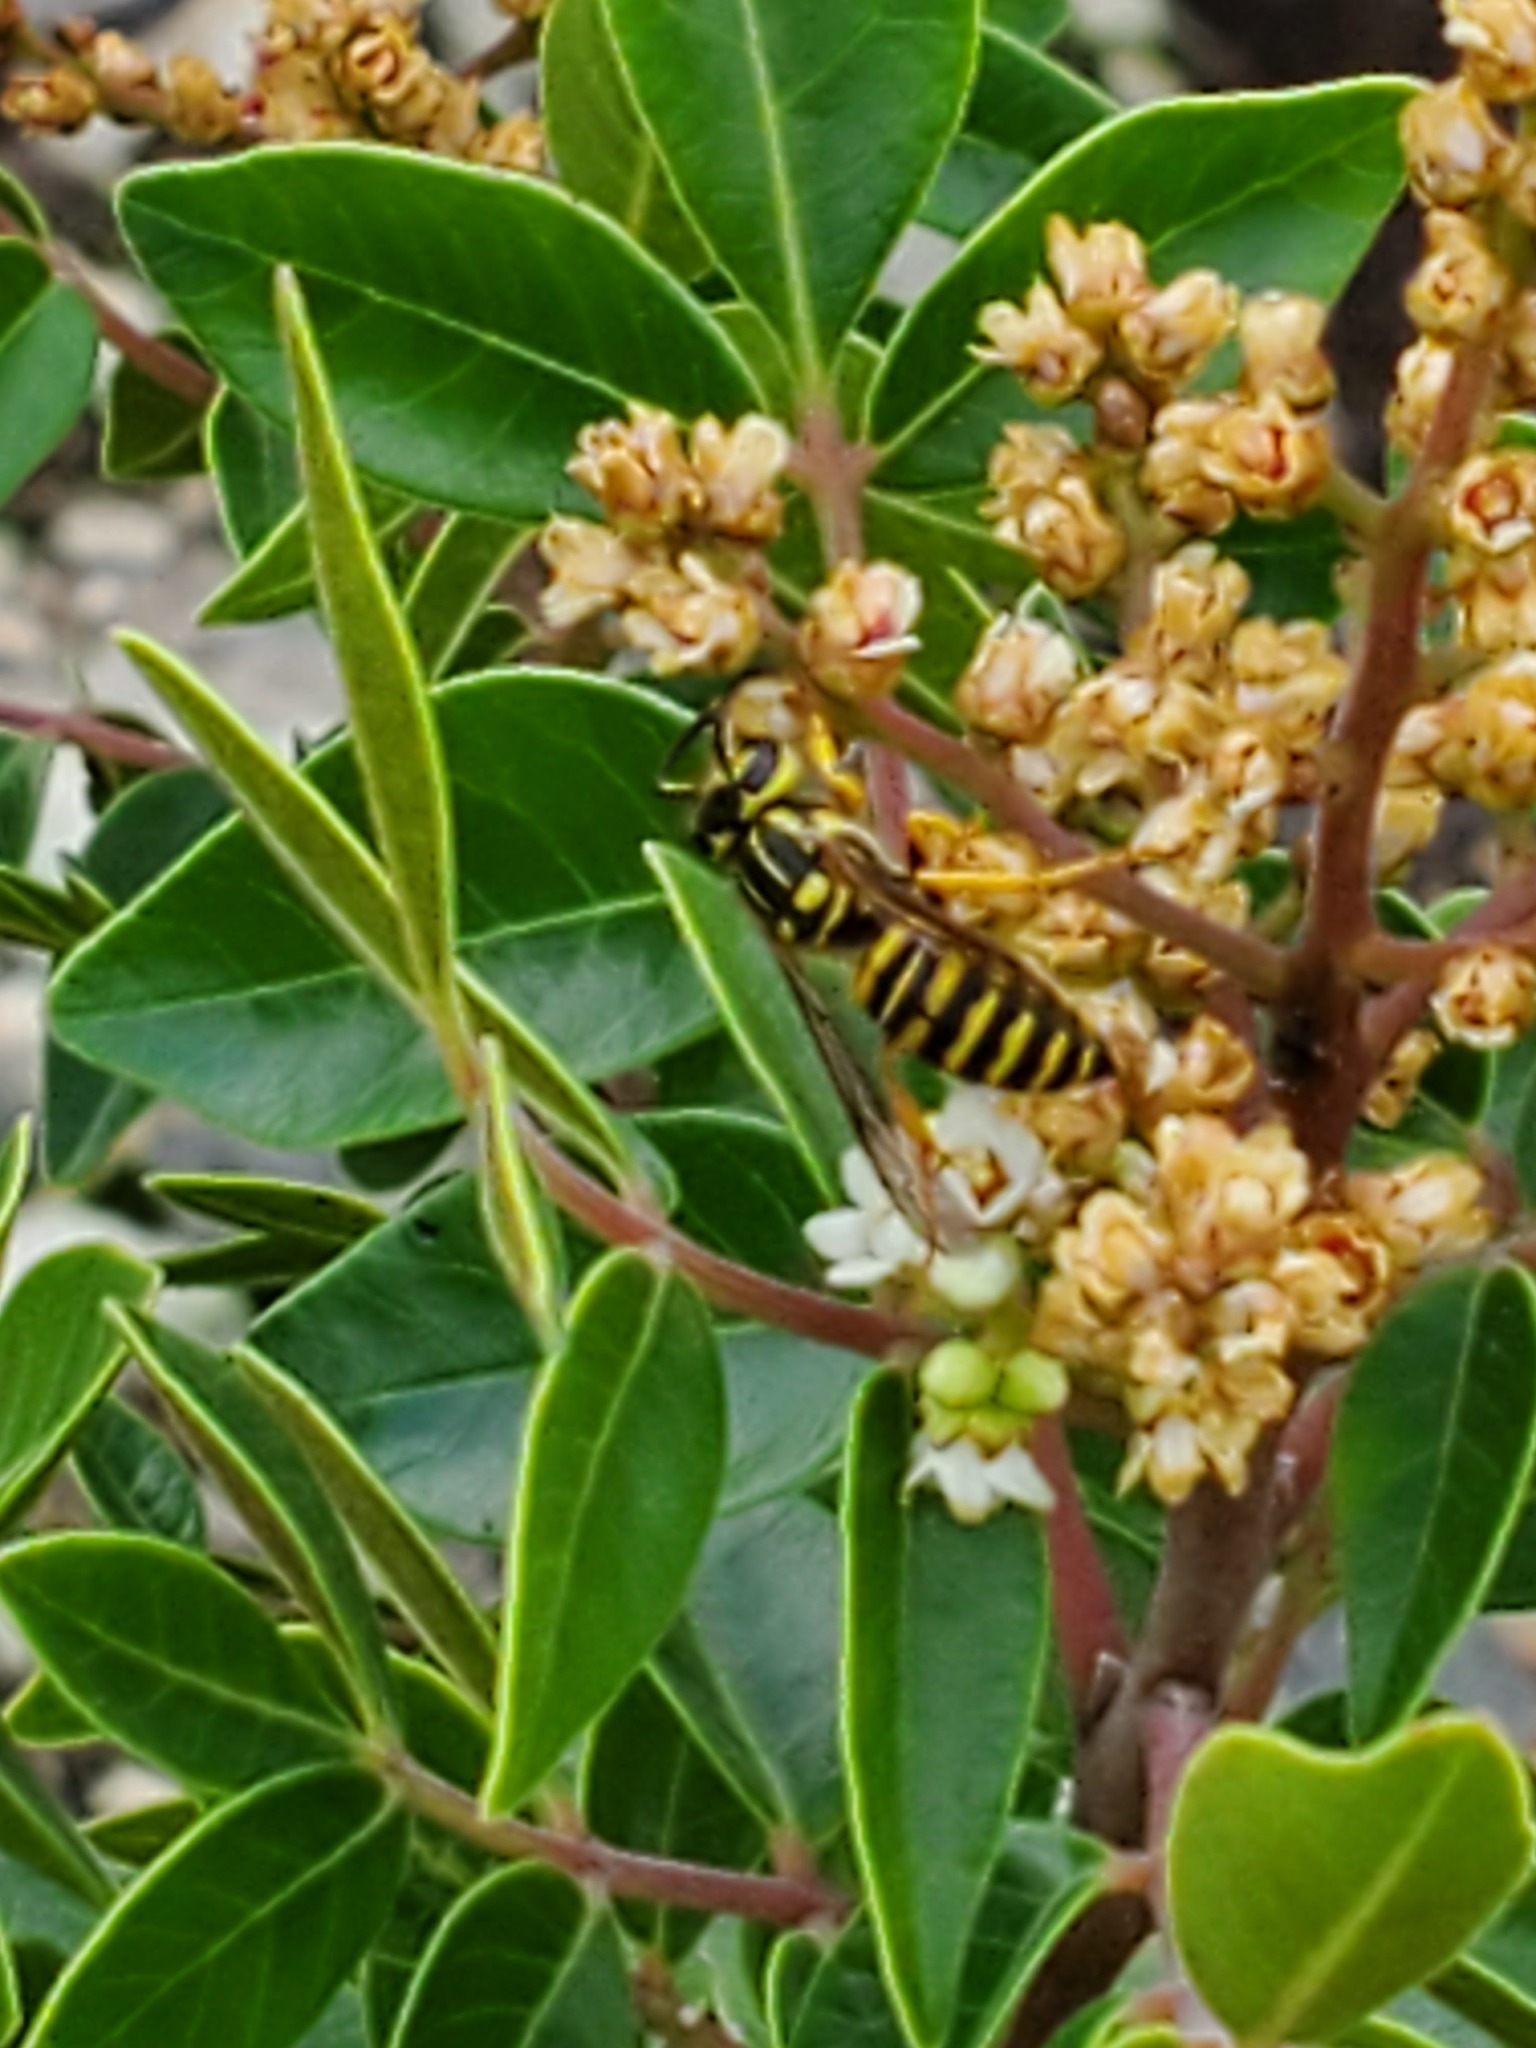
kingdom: Animalia
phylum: Arthropoda
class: Insecta
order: Hymenoptera
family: Vespidae
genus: Vespula
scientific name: Vespula squamosa
